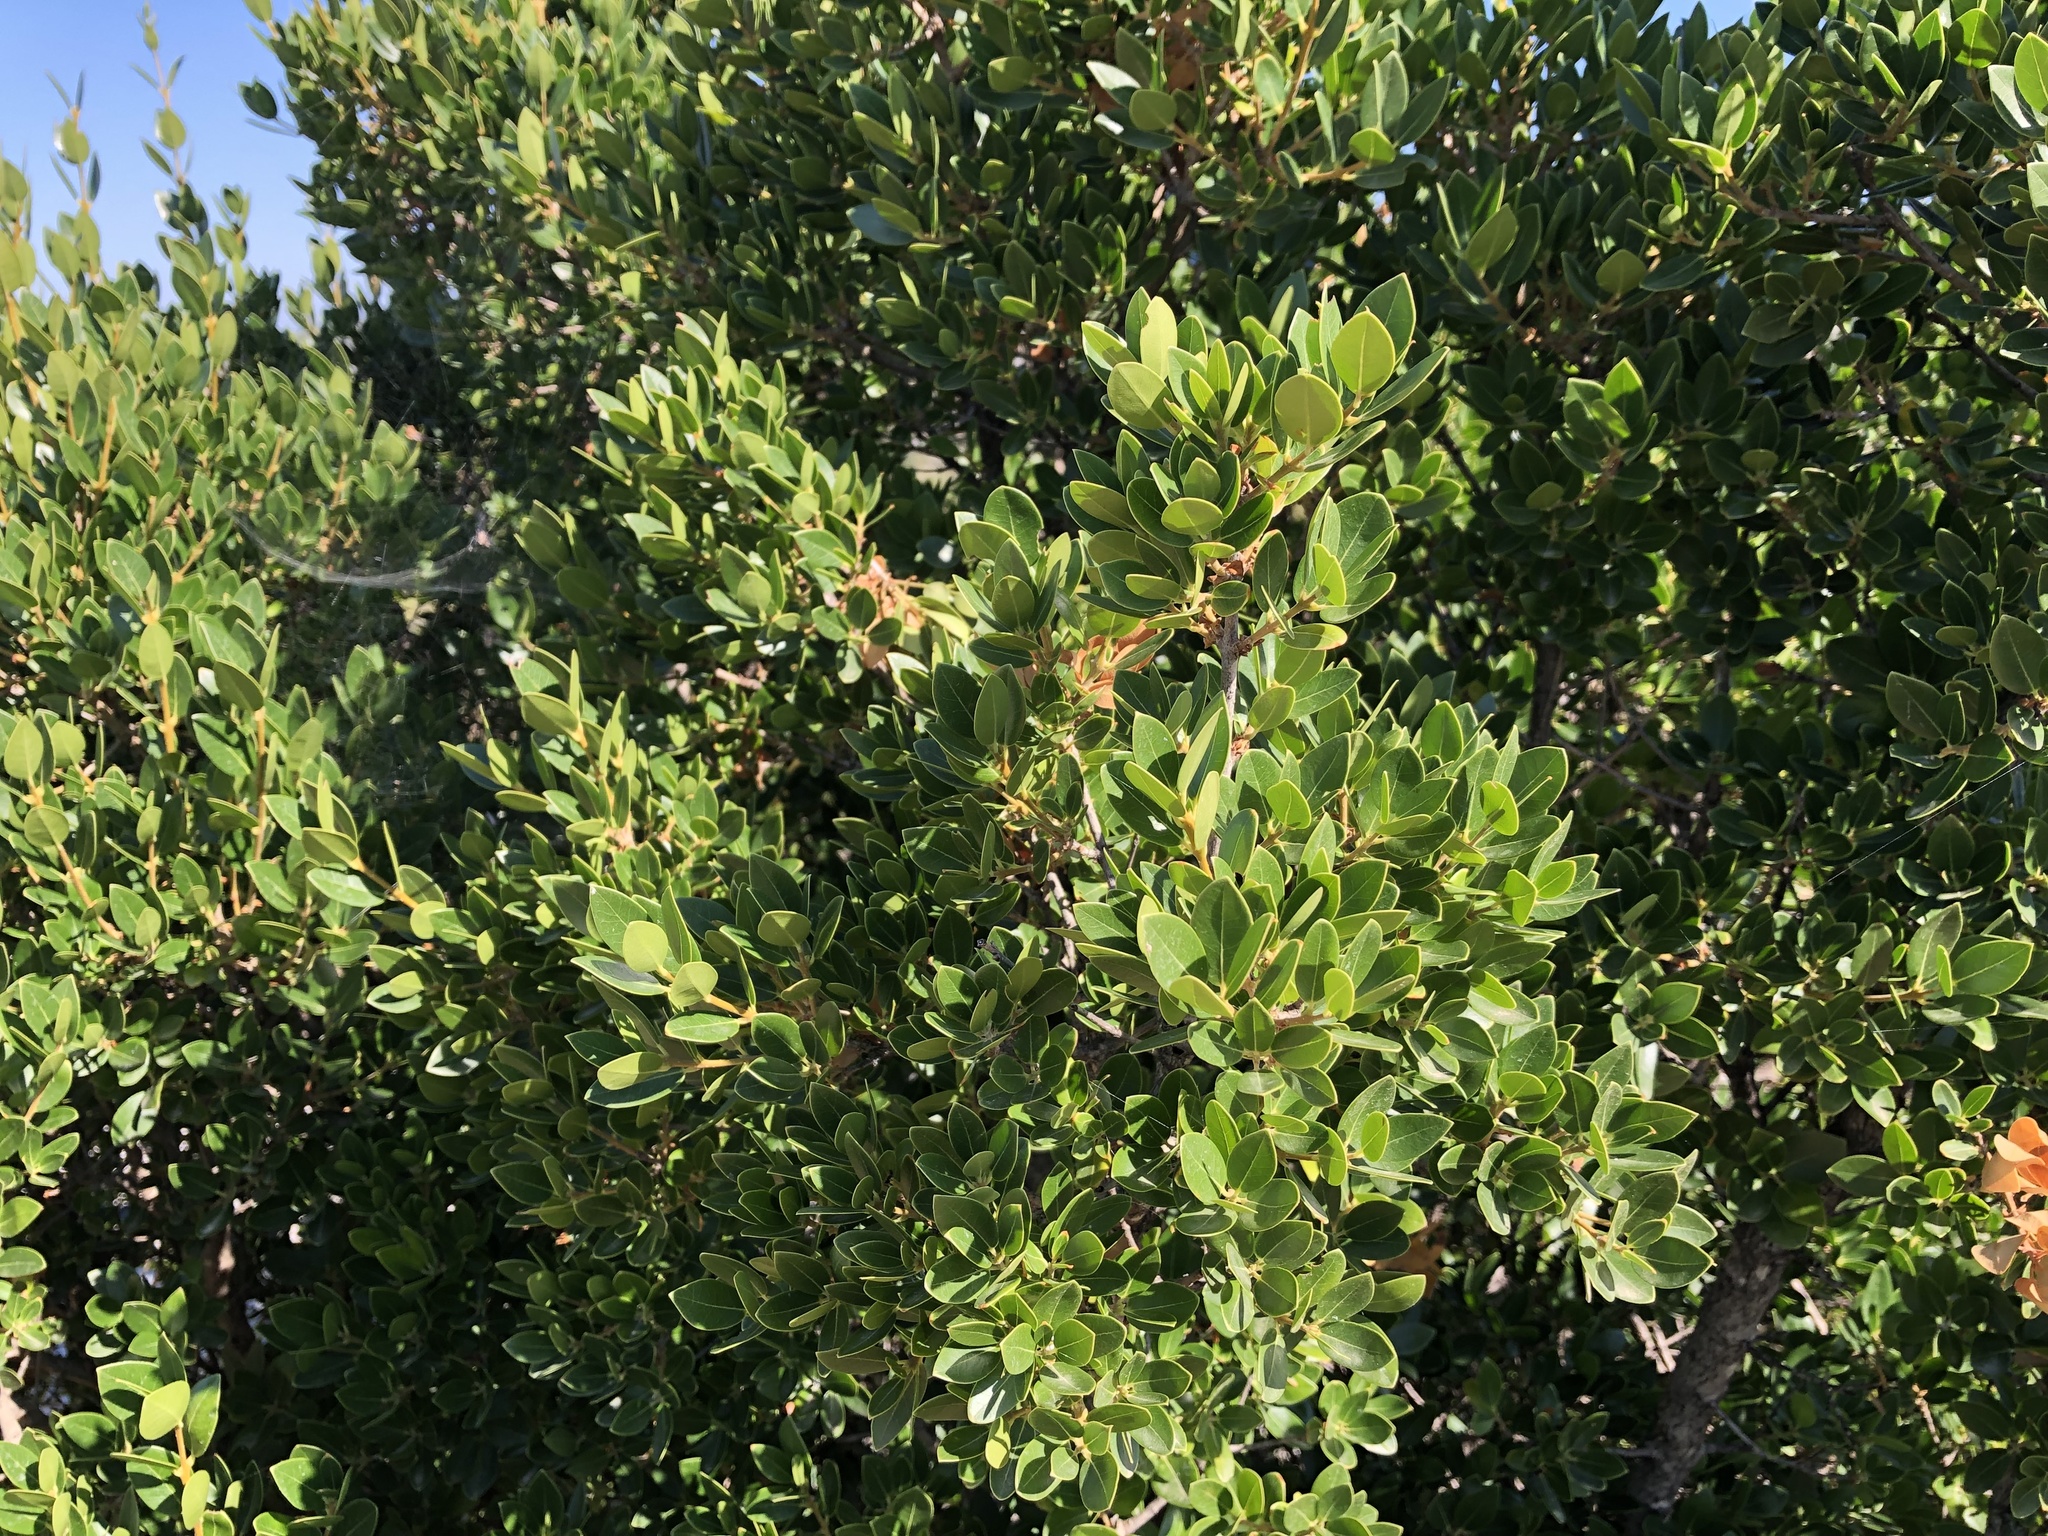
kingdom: Plantae
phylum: Tracheophyta
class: Magnoliopsida
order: Ericales
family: Ericaceae
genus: Arbutus
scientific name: Arbutus unedo
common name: Strawberry-tree
